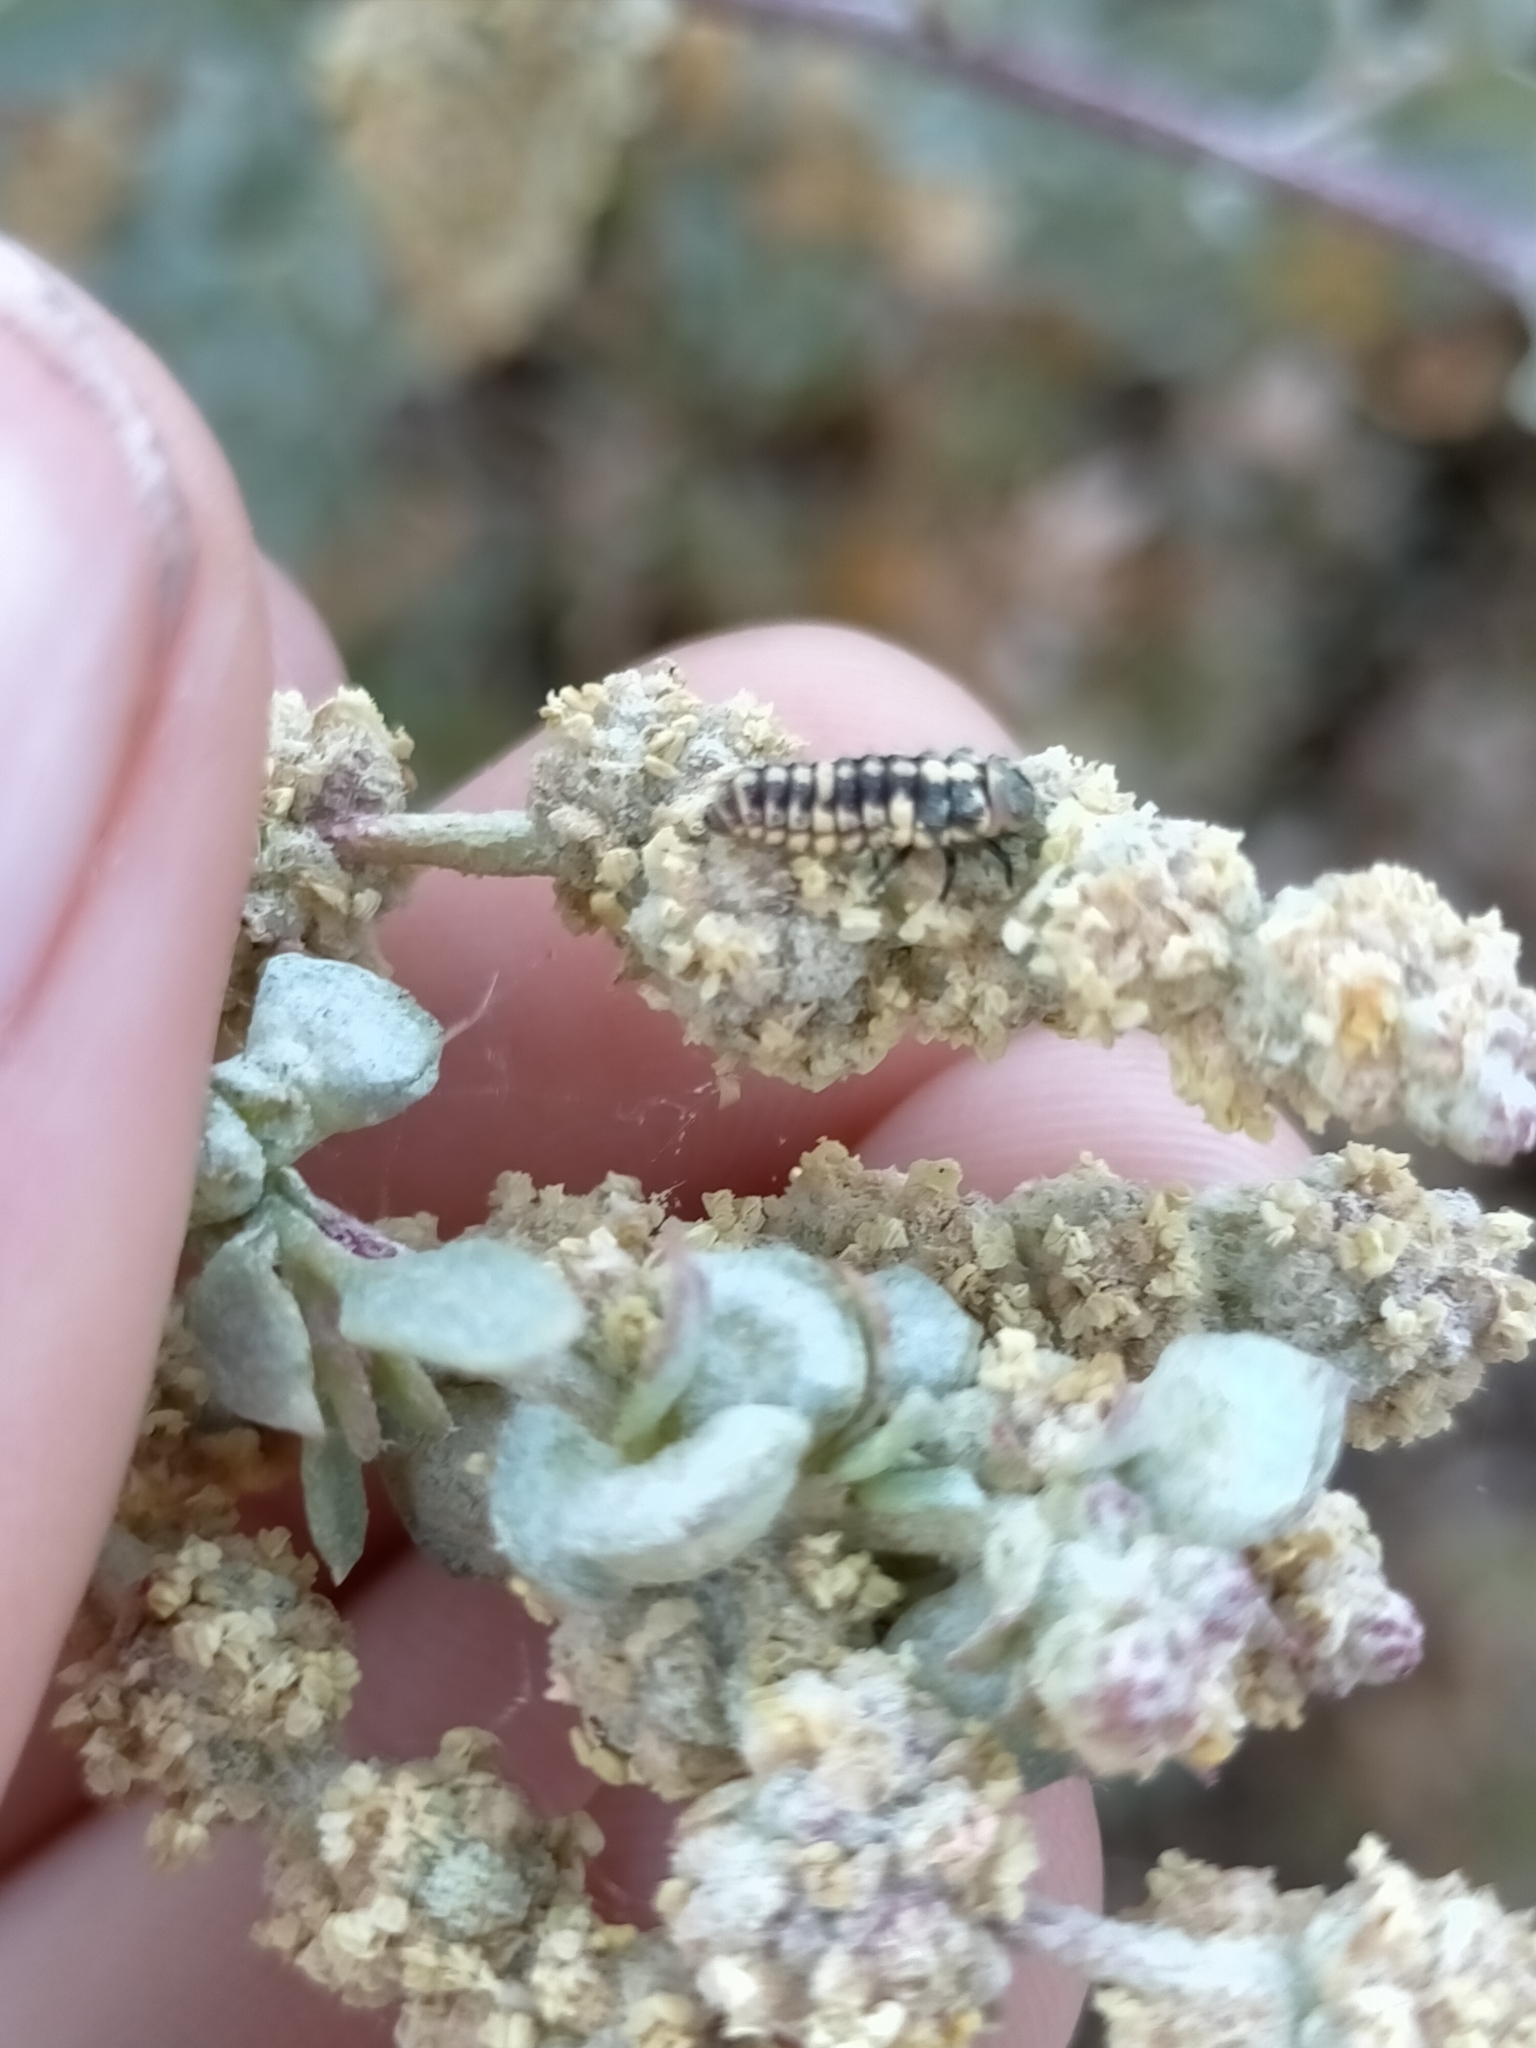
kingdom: Animalia
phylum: Arthropoda
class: Insecta
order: Coleoptera
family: Coccinellidae
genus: Micraspis
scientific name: Micraspis
